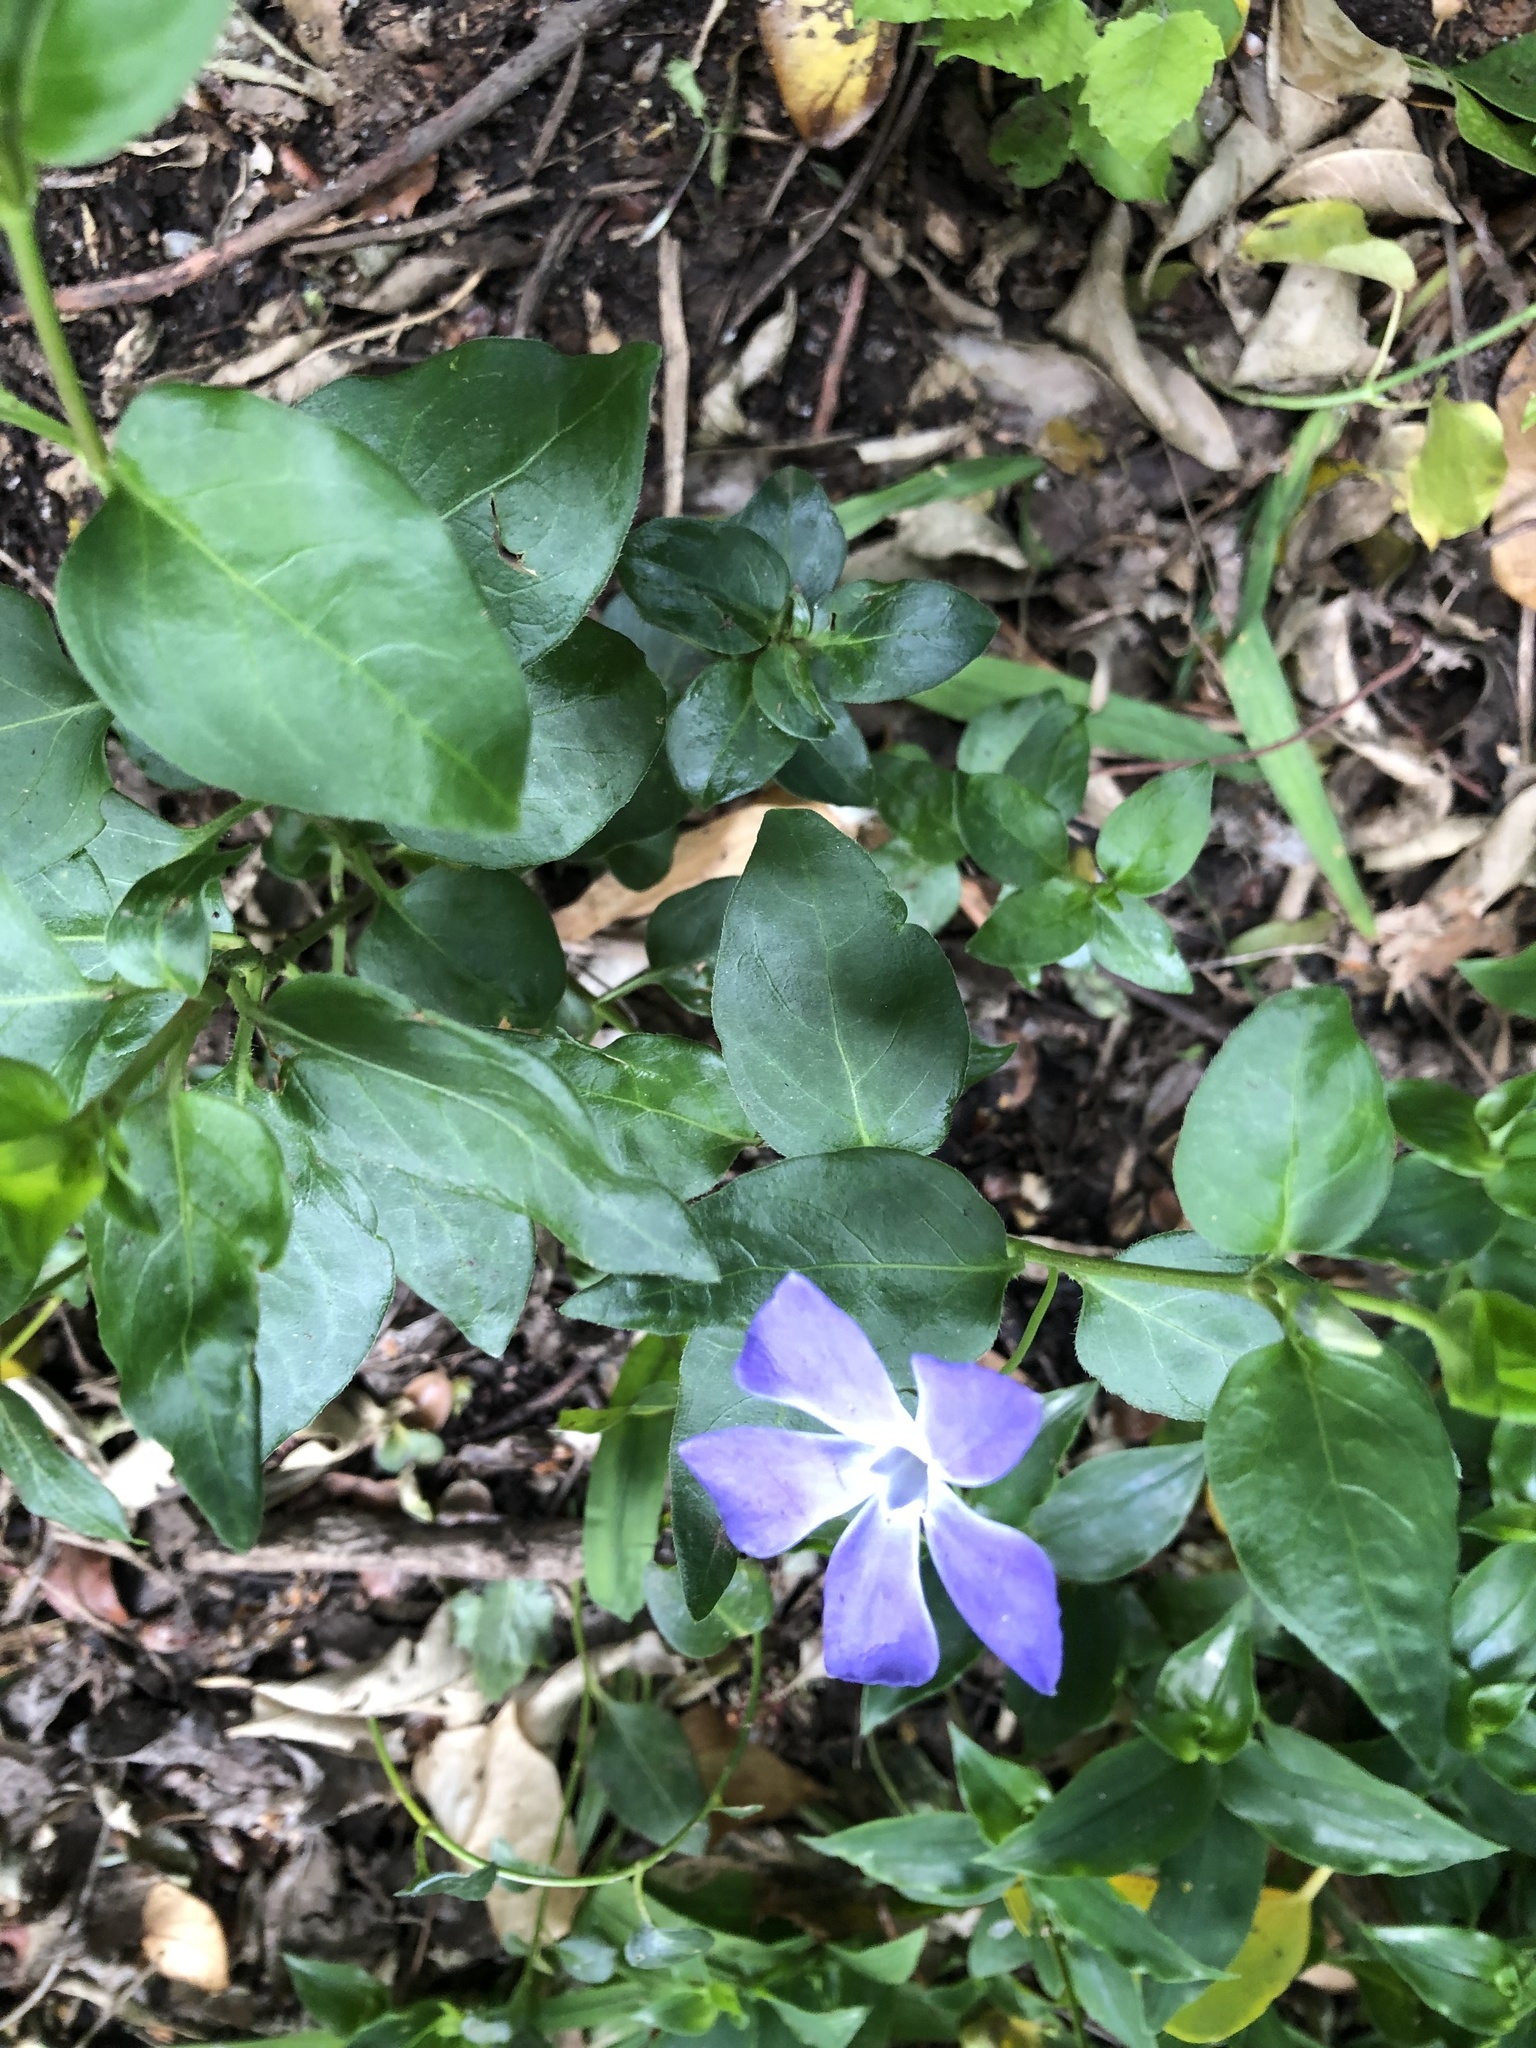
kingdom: Plantae
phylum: Tracheophyta
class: Magnoliopsida
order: Gentianales
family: Apocynaceae
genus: Vinca
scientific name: Vinca major
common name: Greater periwinkle
